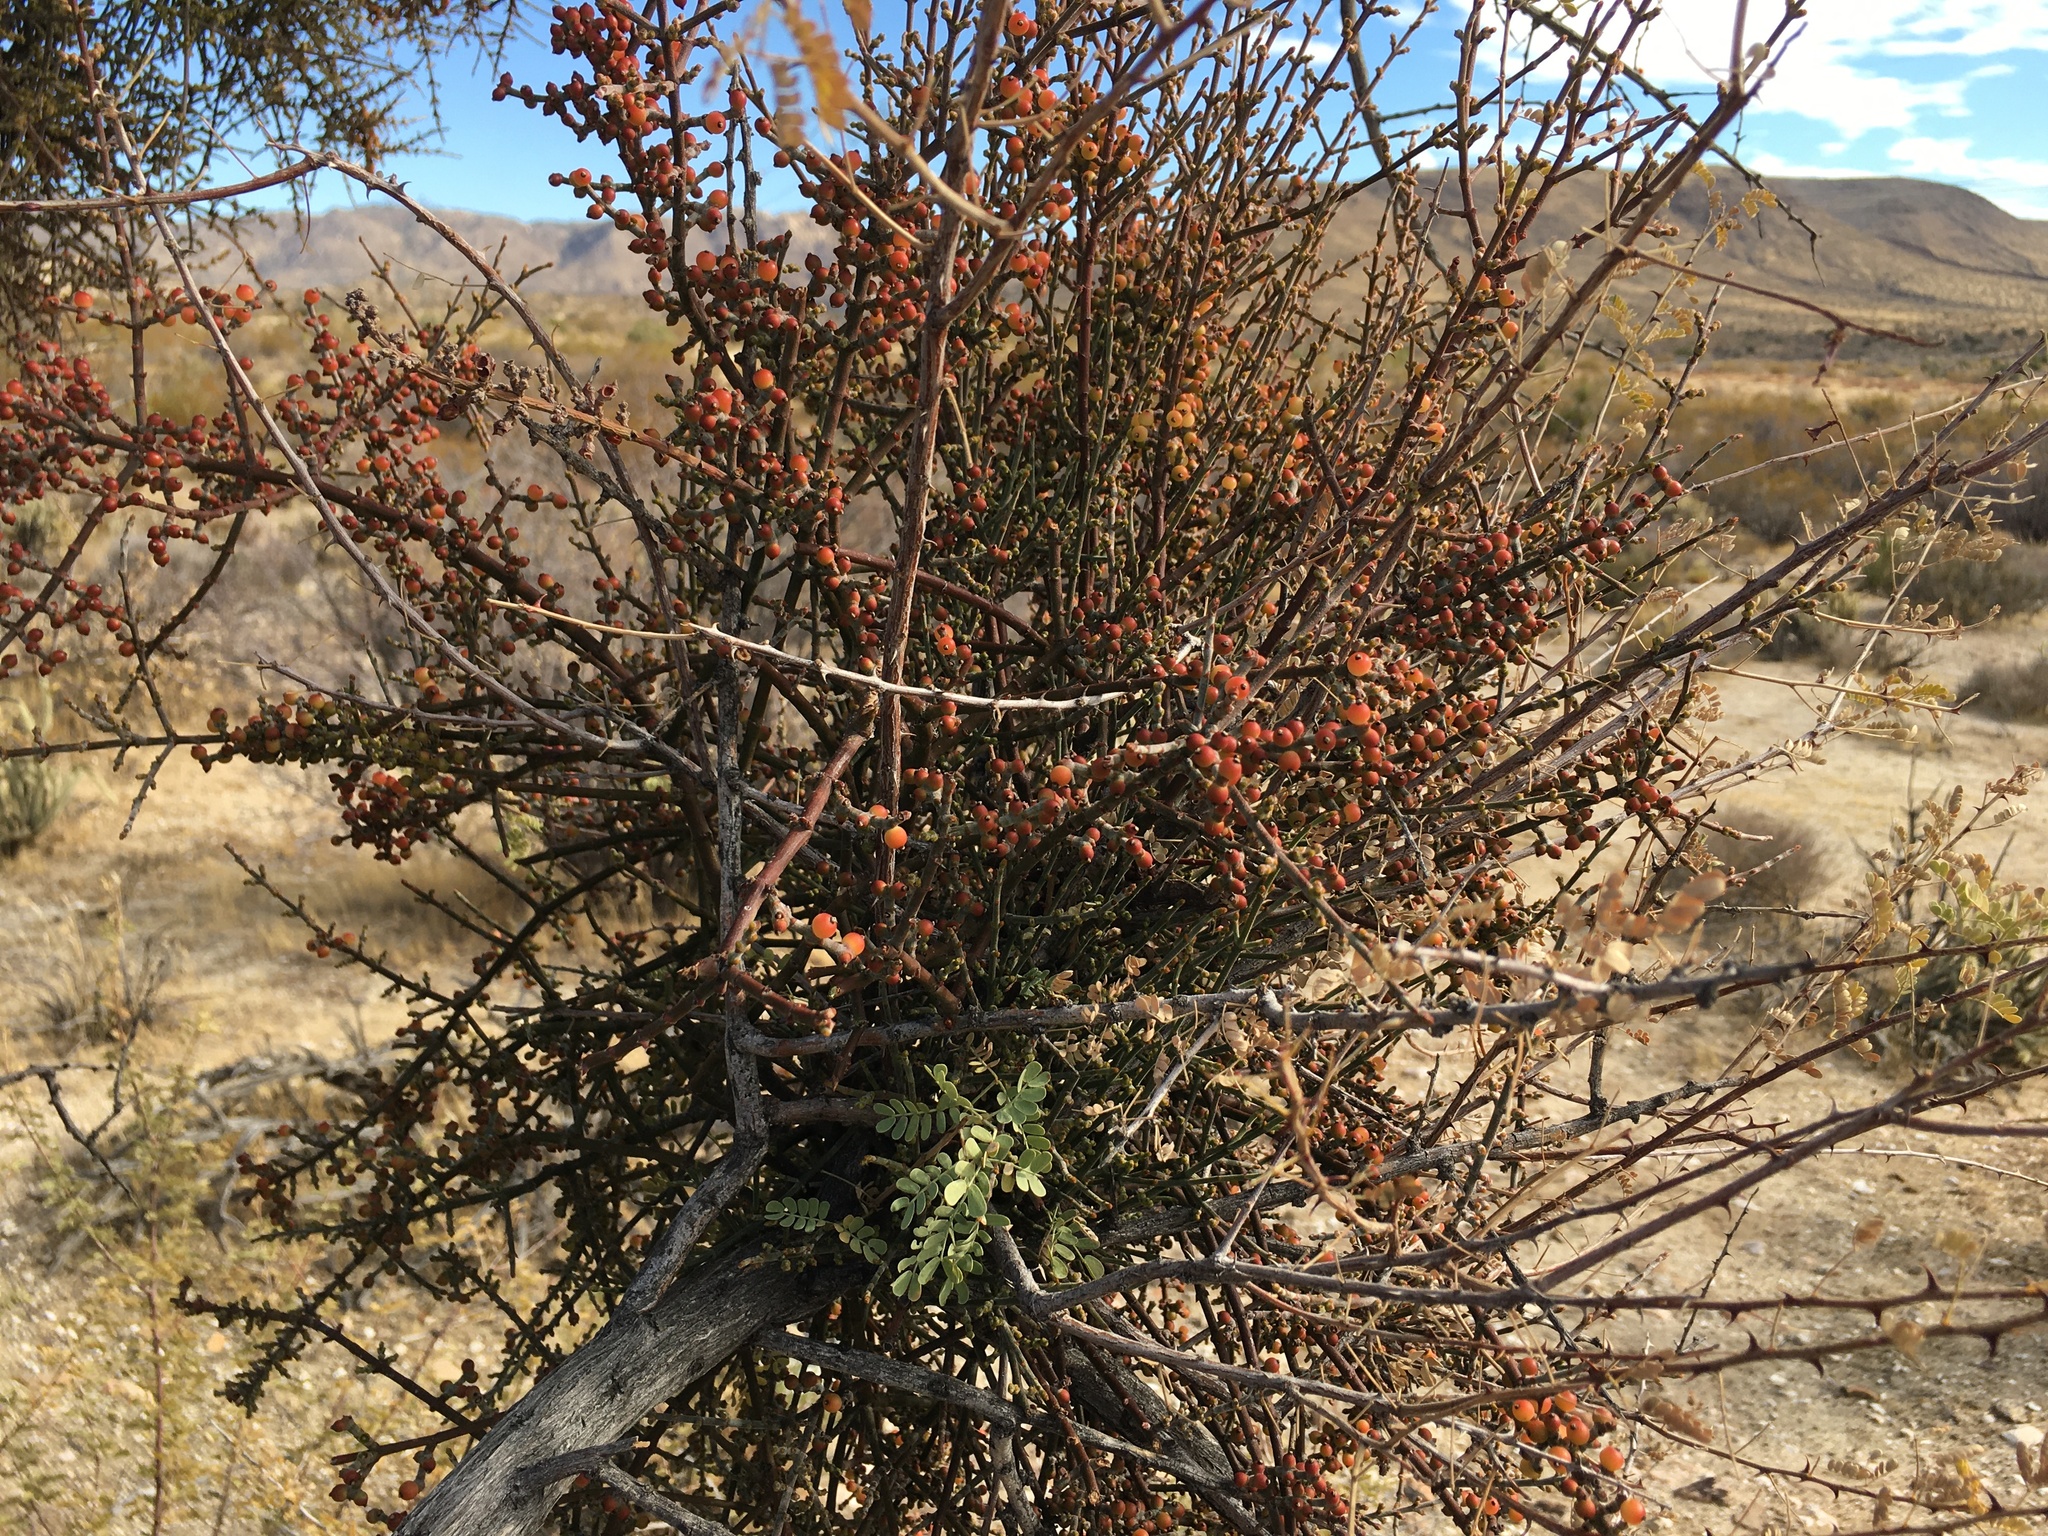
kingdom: Plantae
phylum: Tracheophyta
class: Magnoliopsida
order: Santalales
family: Viscaceae
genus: Phoradendron
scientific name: Phoradendron californicum
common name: Acacia mistletoe
